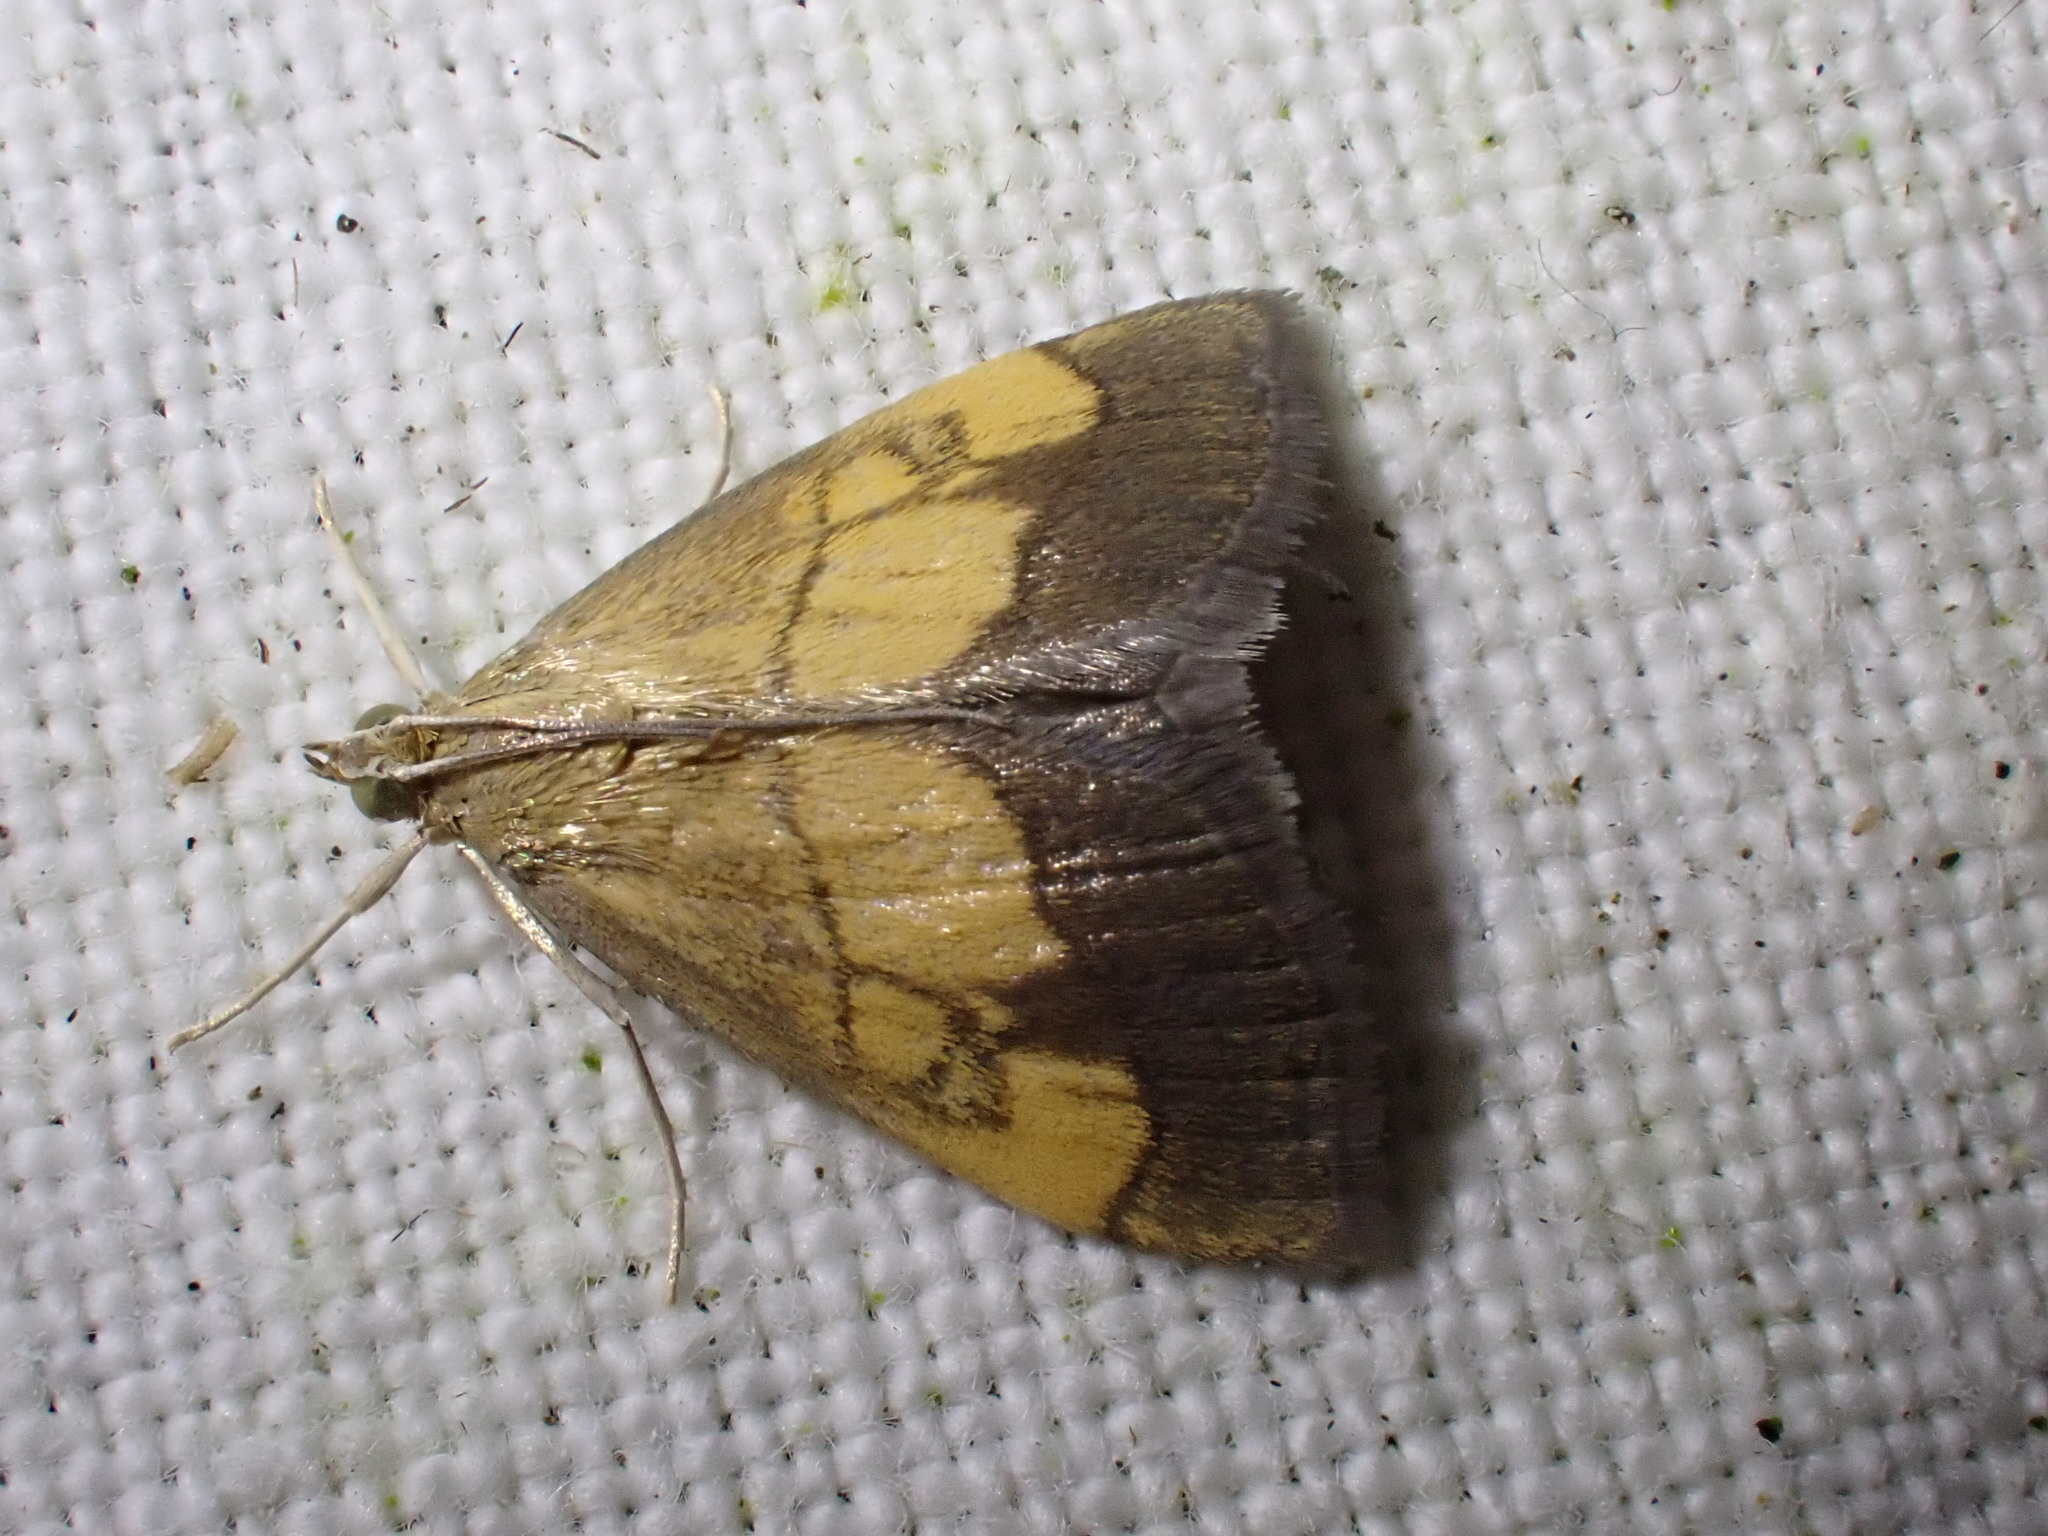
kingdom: Animalia
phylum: Arthropoda
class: Insecta
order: Lepidoptera
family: Crambidae
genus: Evergestis
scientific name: Evergestis limbata
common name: Dark bordered pearl
